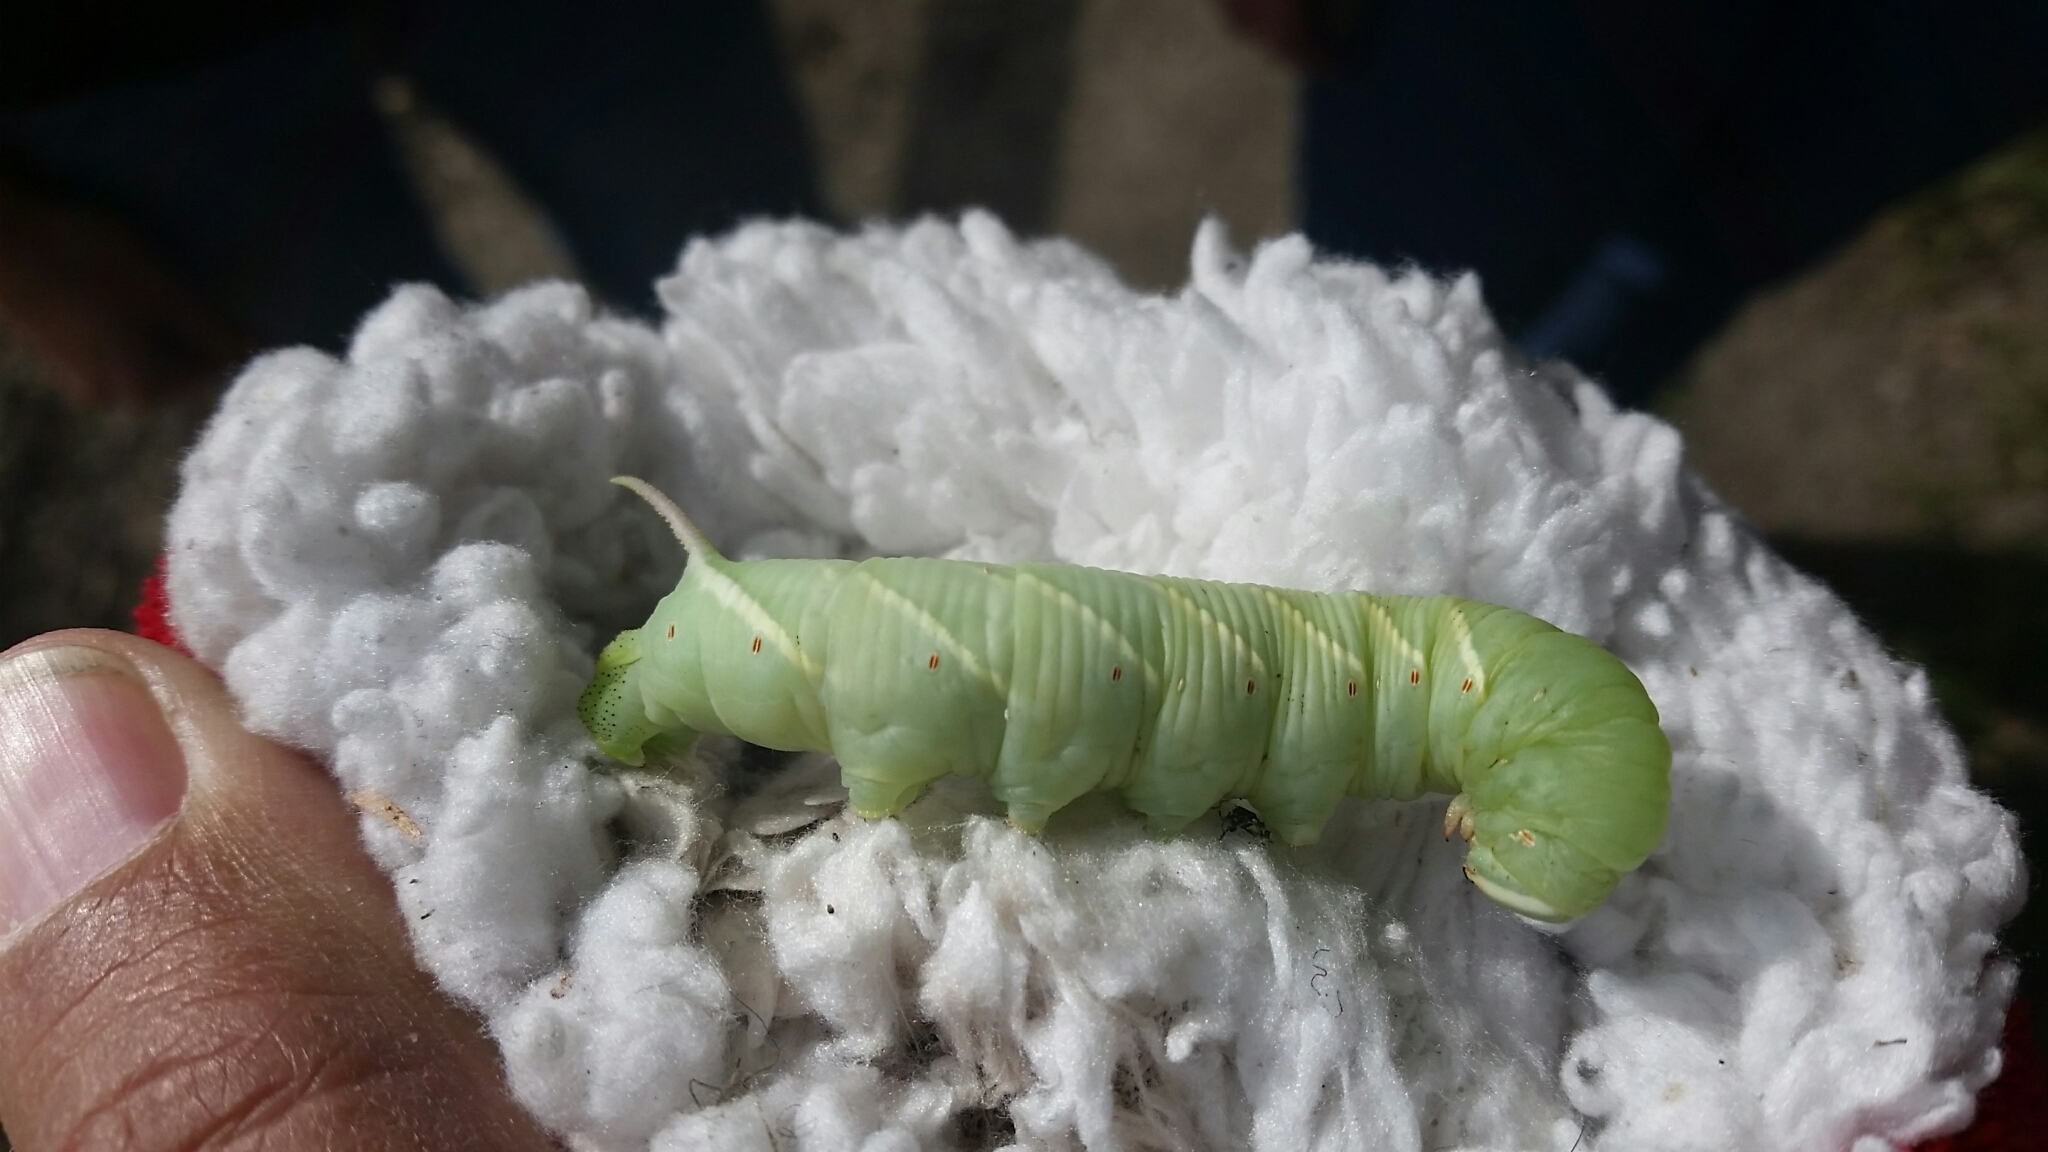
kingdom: Animalia
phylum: Arthropoda
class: Insecta
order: Lepidoptera
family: Sphingidae
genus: Ceratomia
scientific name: Ceratomia undulosa
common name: Waved sphinx
